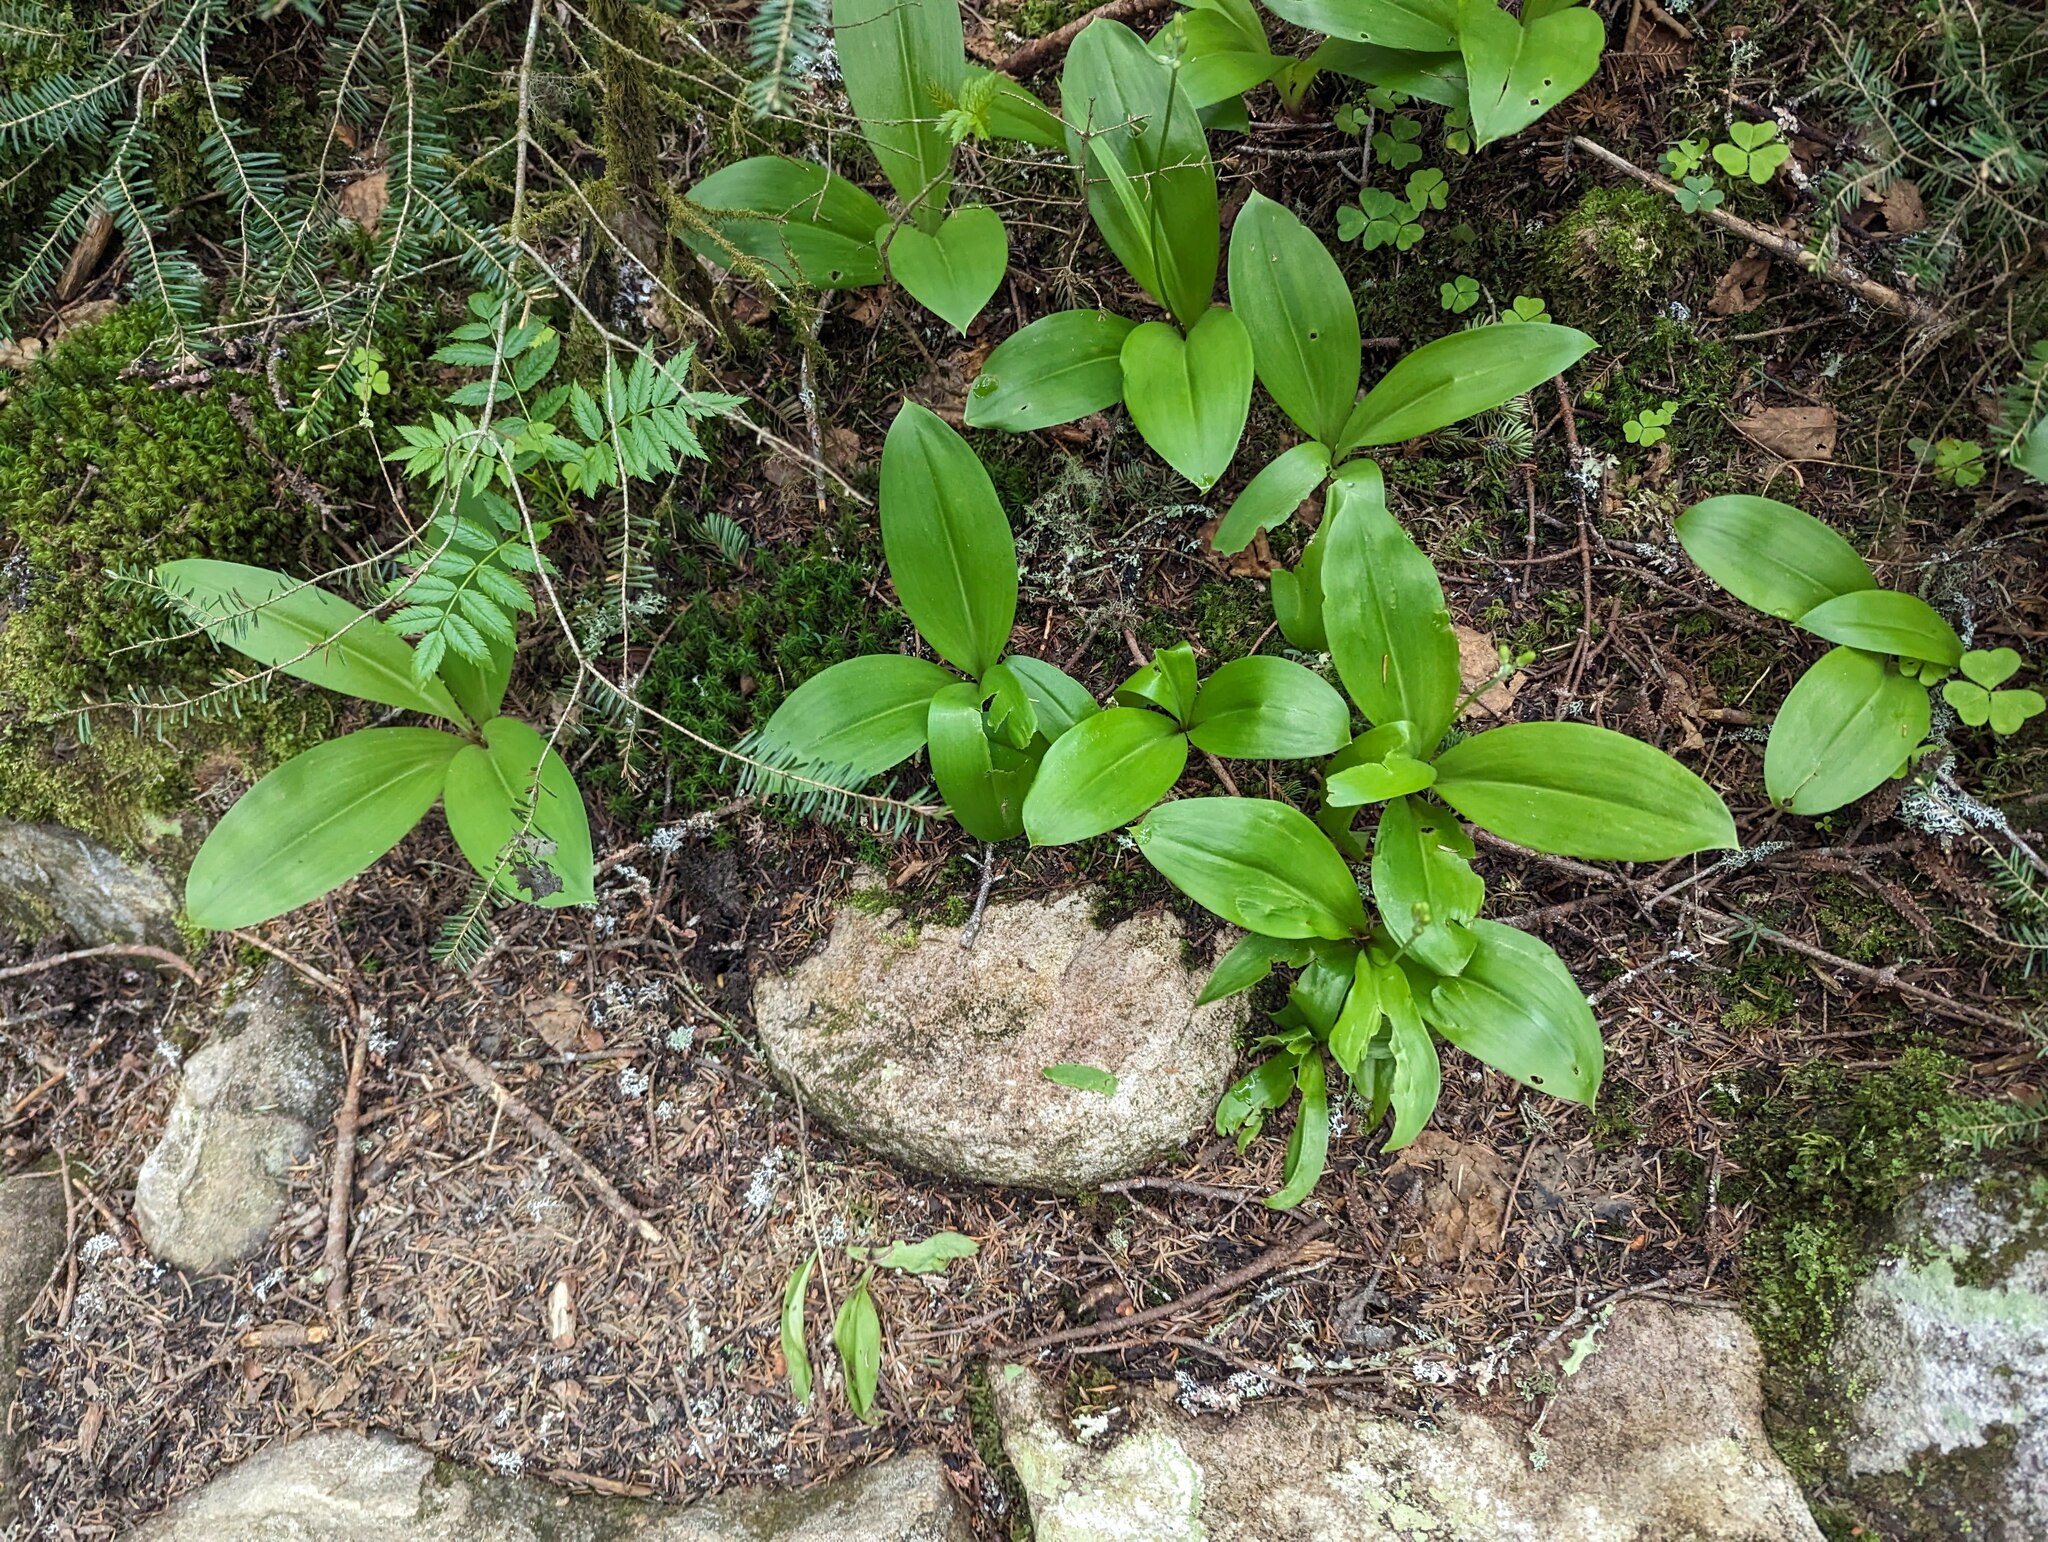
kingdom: Plantae
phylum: Tracheophyta
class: Liliopsida
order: Liliales
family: Liliaceae
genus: Clintonia
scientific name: Clintonia borealis
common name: Yellow clintonia
